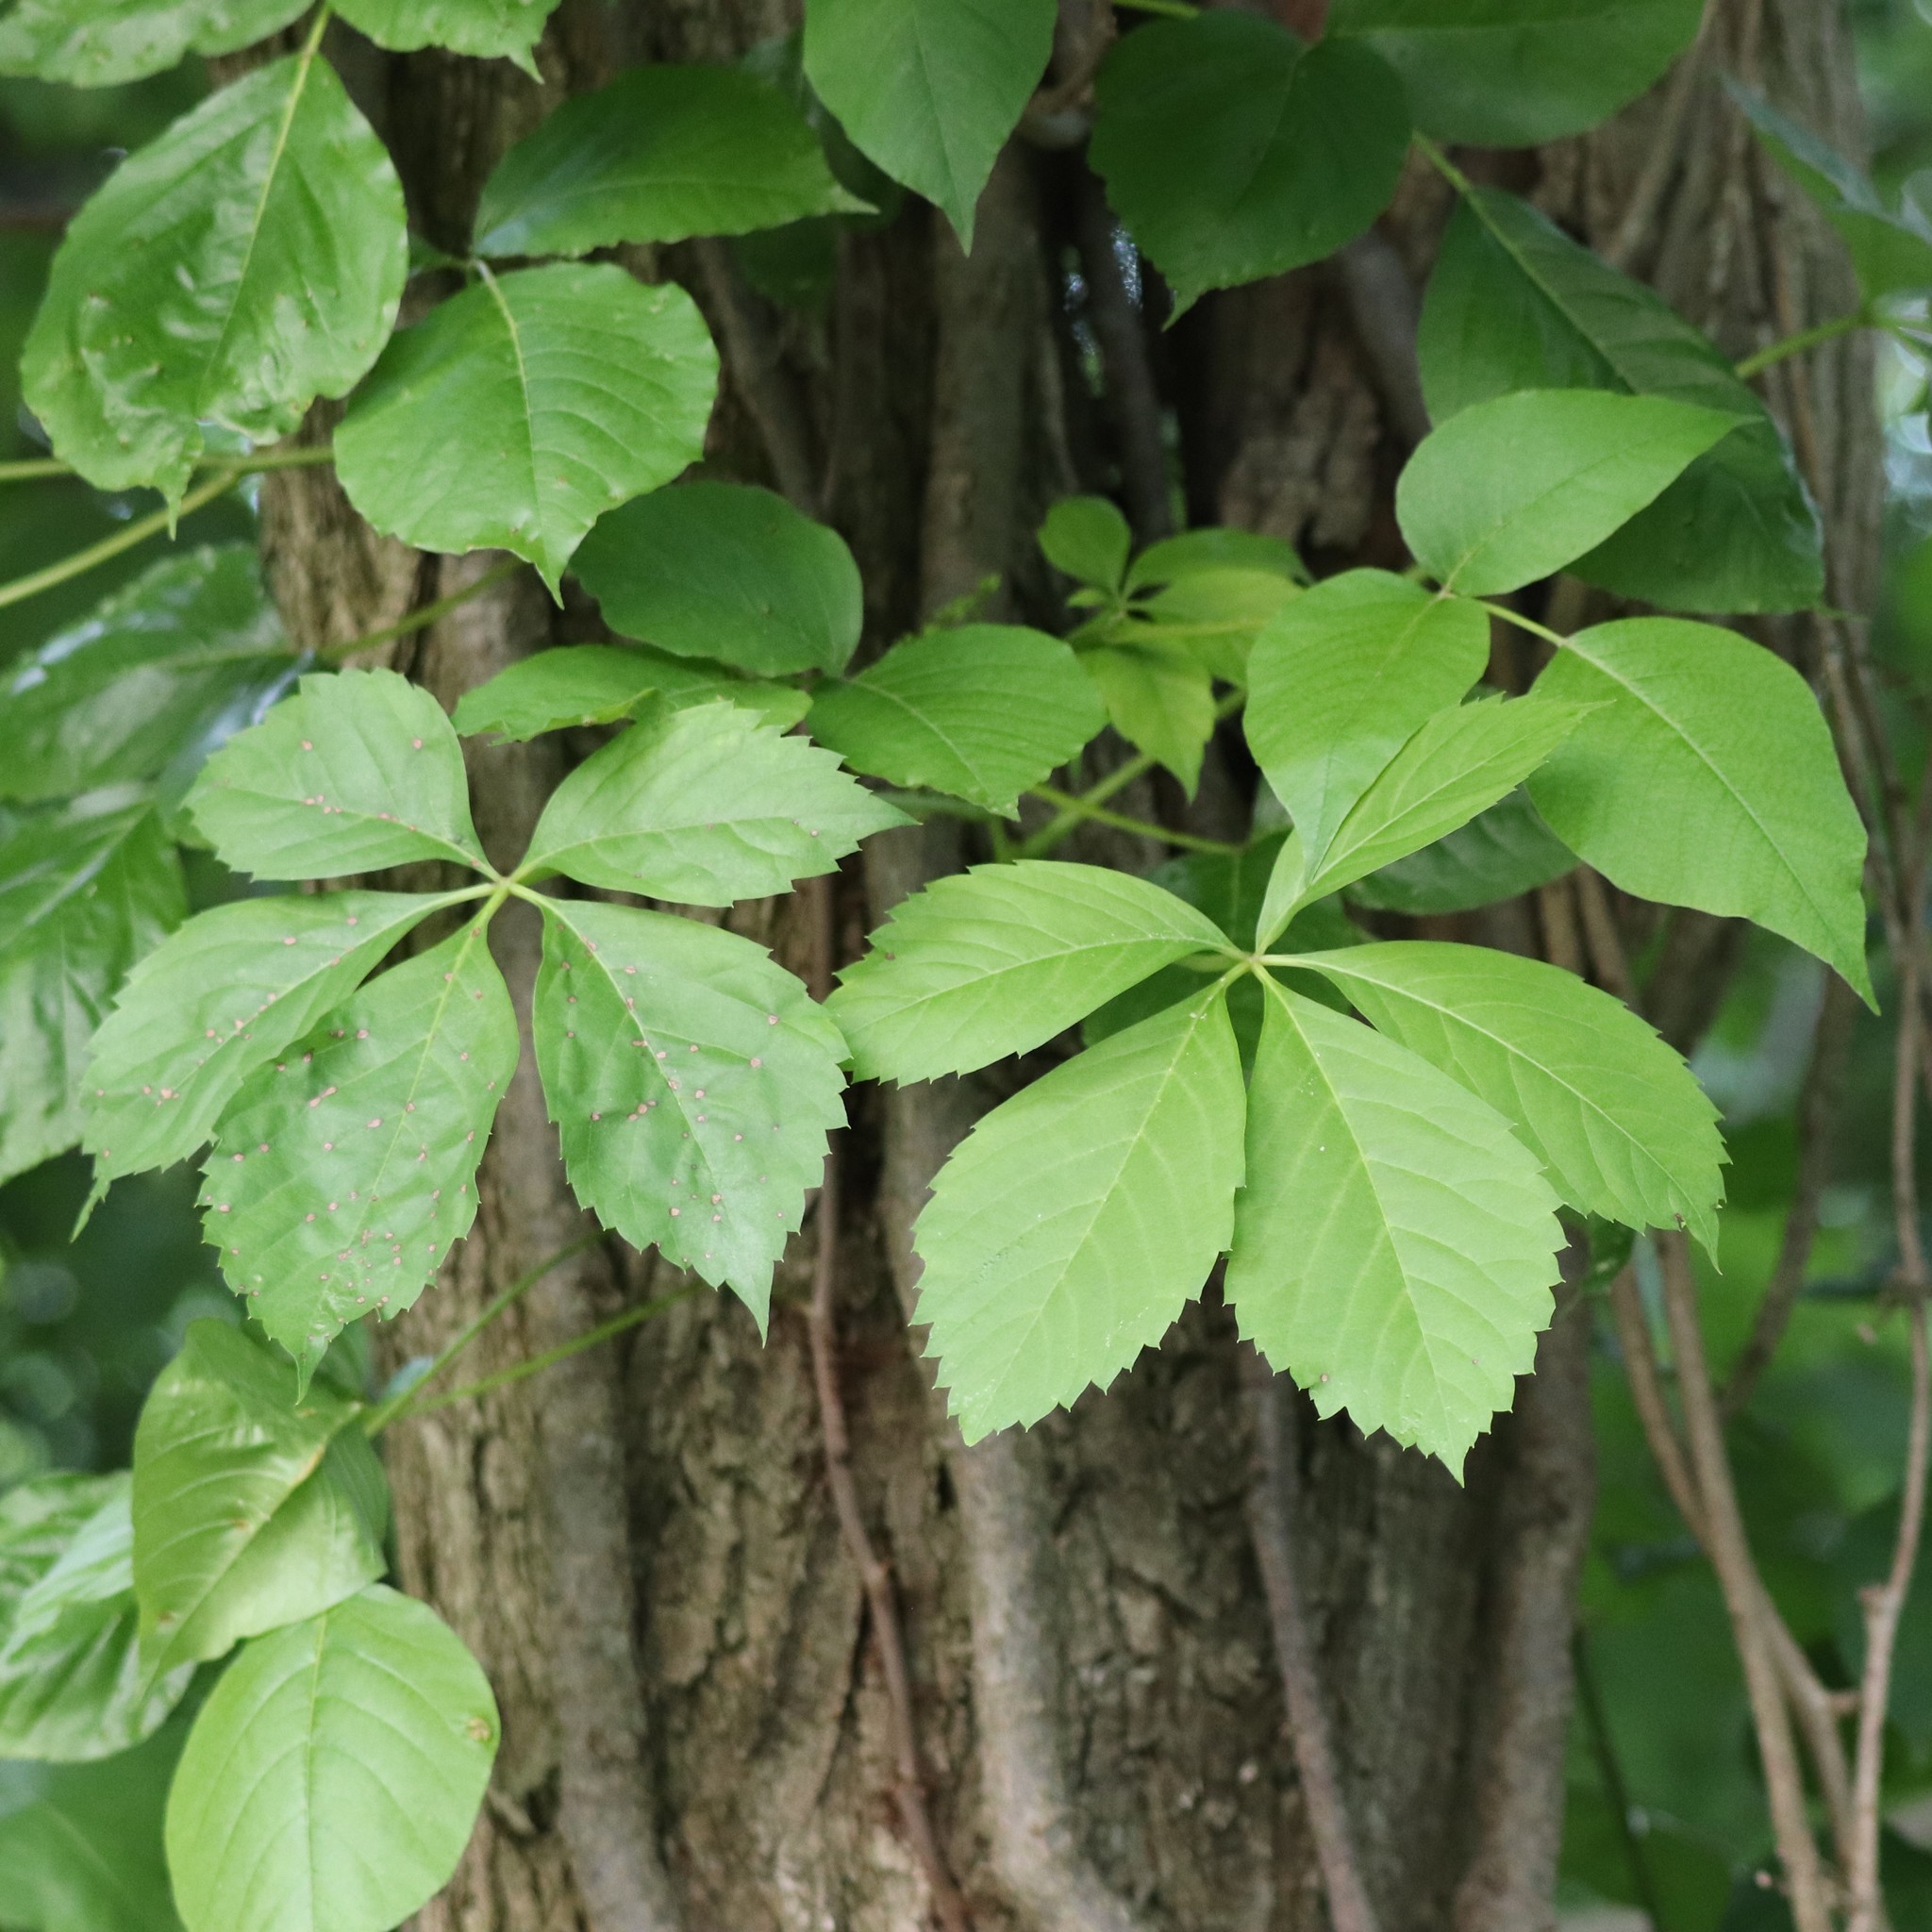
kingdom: Plantae
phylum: Tracheophyta
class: Magnoliopsida
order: Vitales
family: Vitaceae
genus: Parthenocissus
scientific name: Parthenocissus quinquefolia
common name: Virginia-creeper
